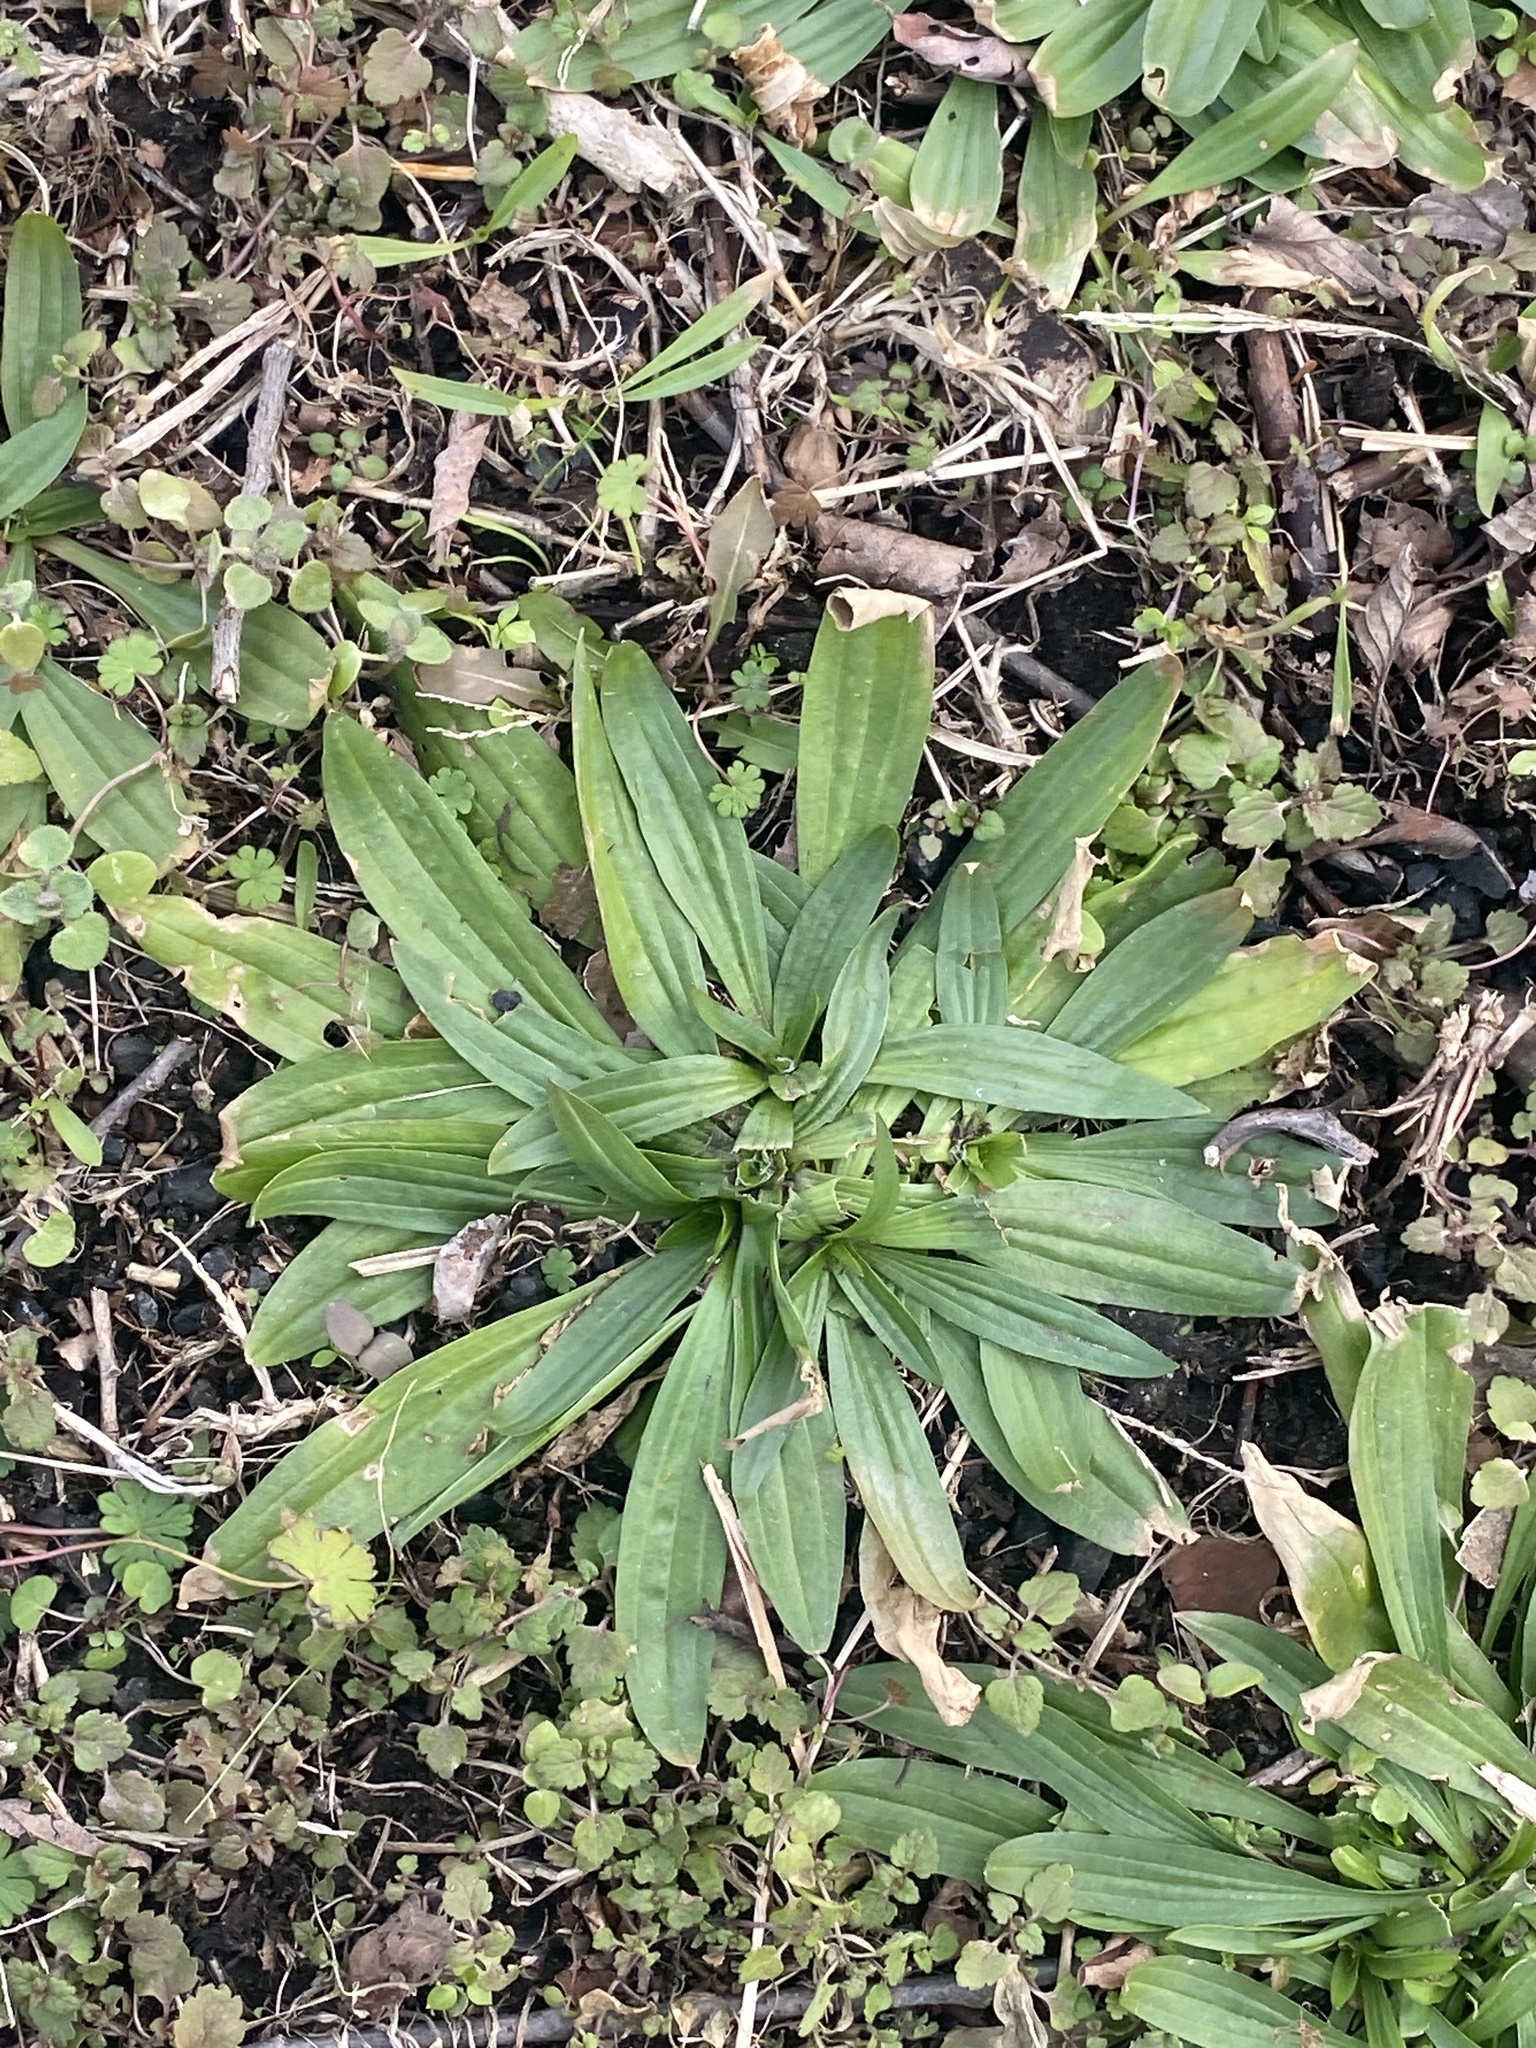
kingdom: Plantae
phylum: Tracheophyta
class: Magnoliopsida
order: Lamiales
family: Plantaginaceae
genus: Plantago
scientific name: Plantago lanceolata
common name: Ribwort plantain
